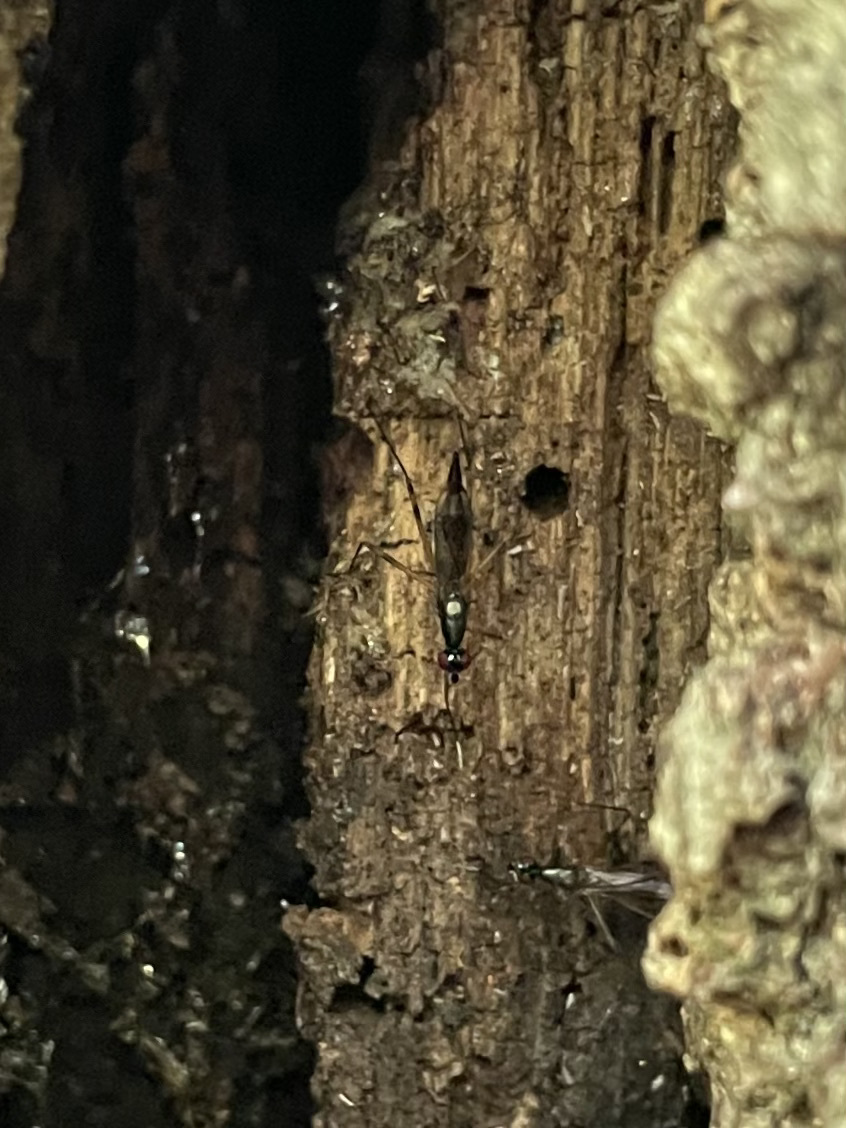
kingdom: Animalia
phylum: Arthropoda
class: Insecta
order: Diptera
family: Micropezidae
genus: Rainieria
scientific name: Rainieria antennaepes
